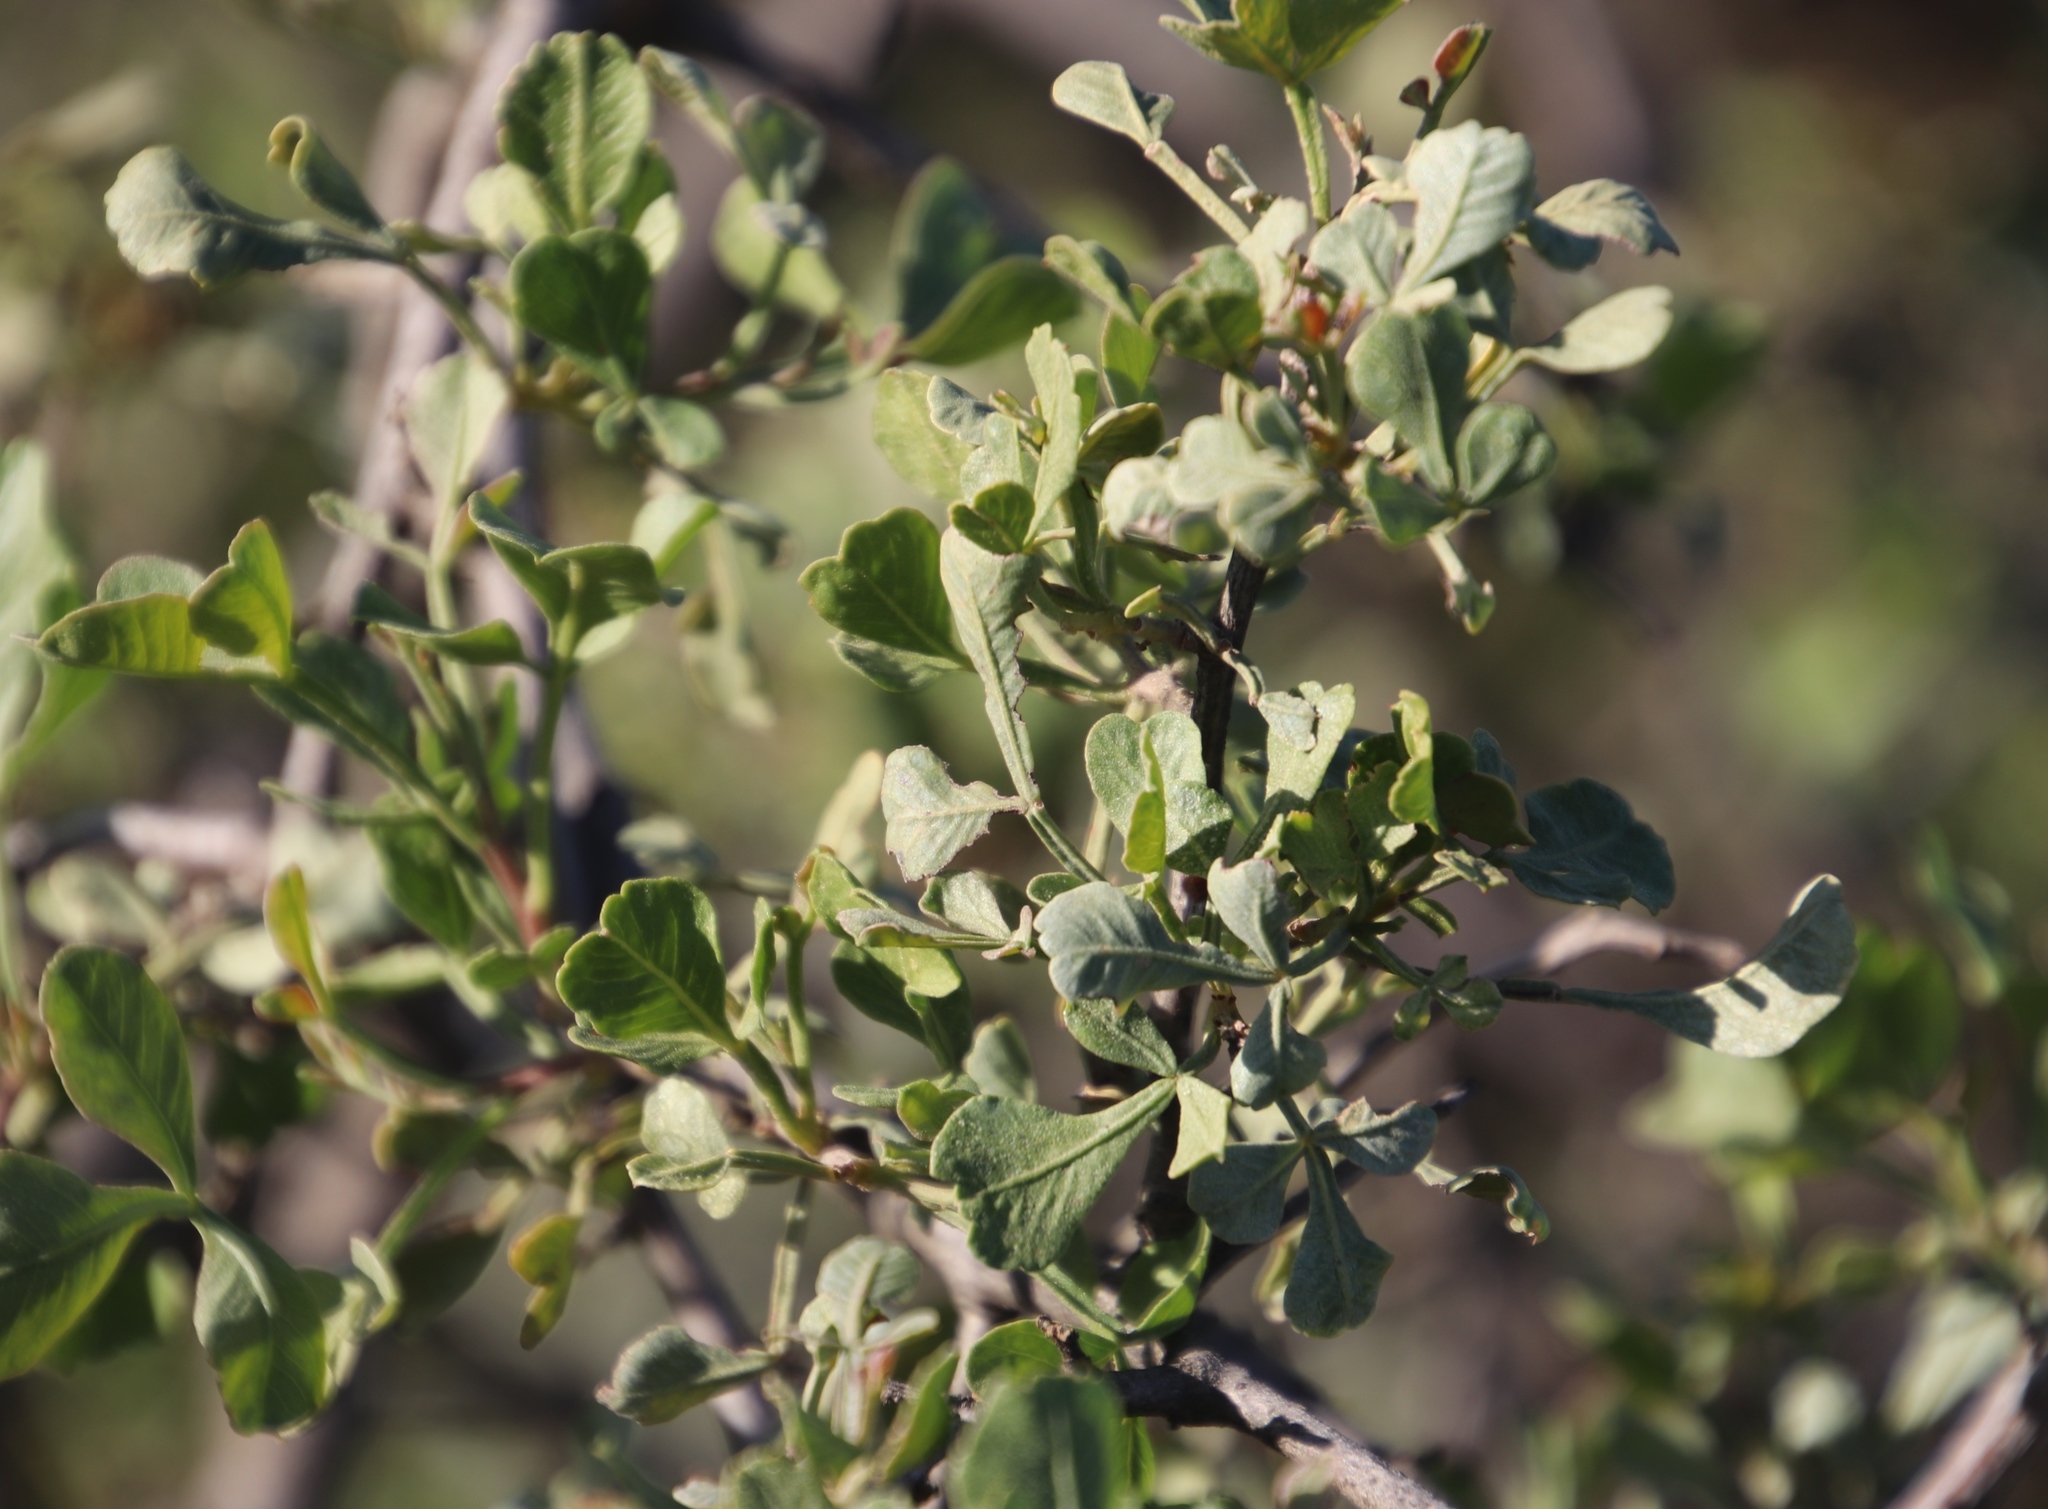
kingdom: Plantae
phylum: Tracheophyta
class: Magnoliopsida
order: Sapindales
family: Anacardiaceae
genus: Searsia
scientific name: Searsia undulata
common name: Namaqua kunibush
